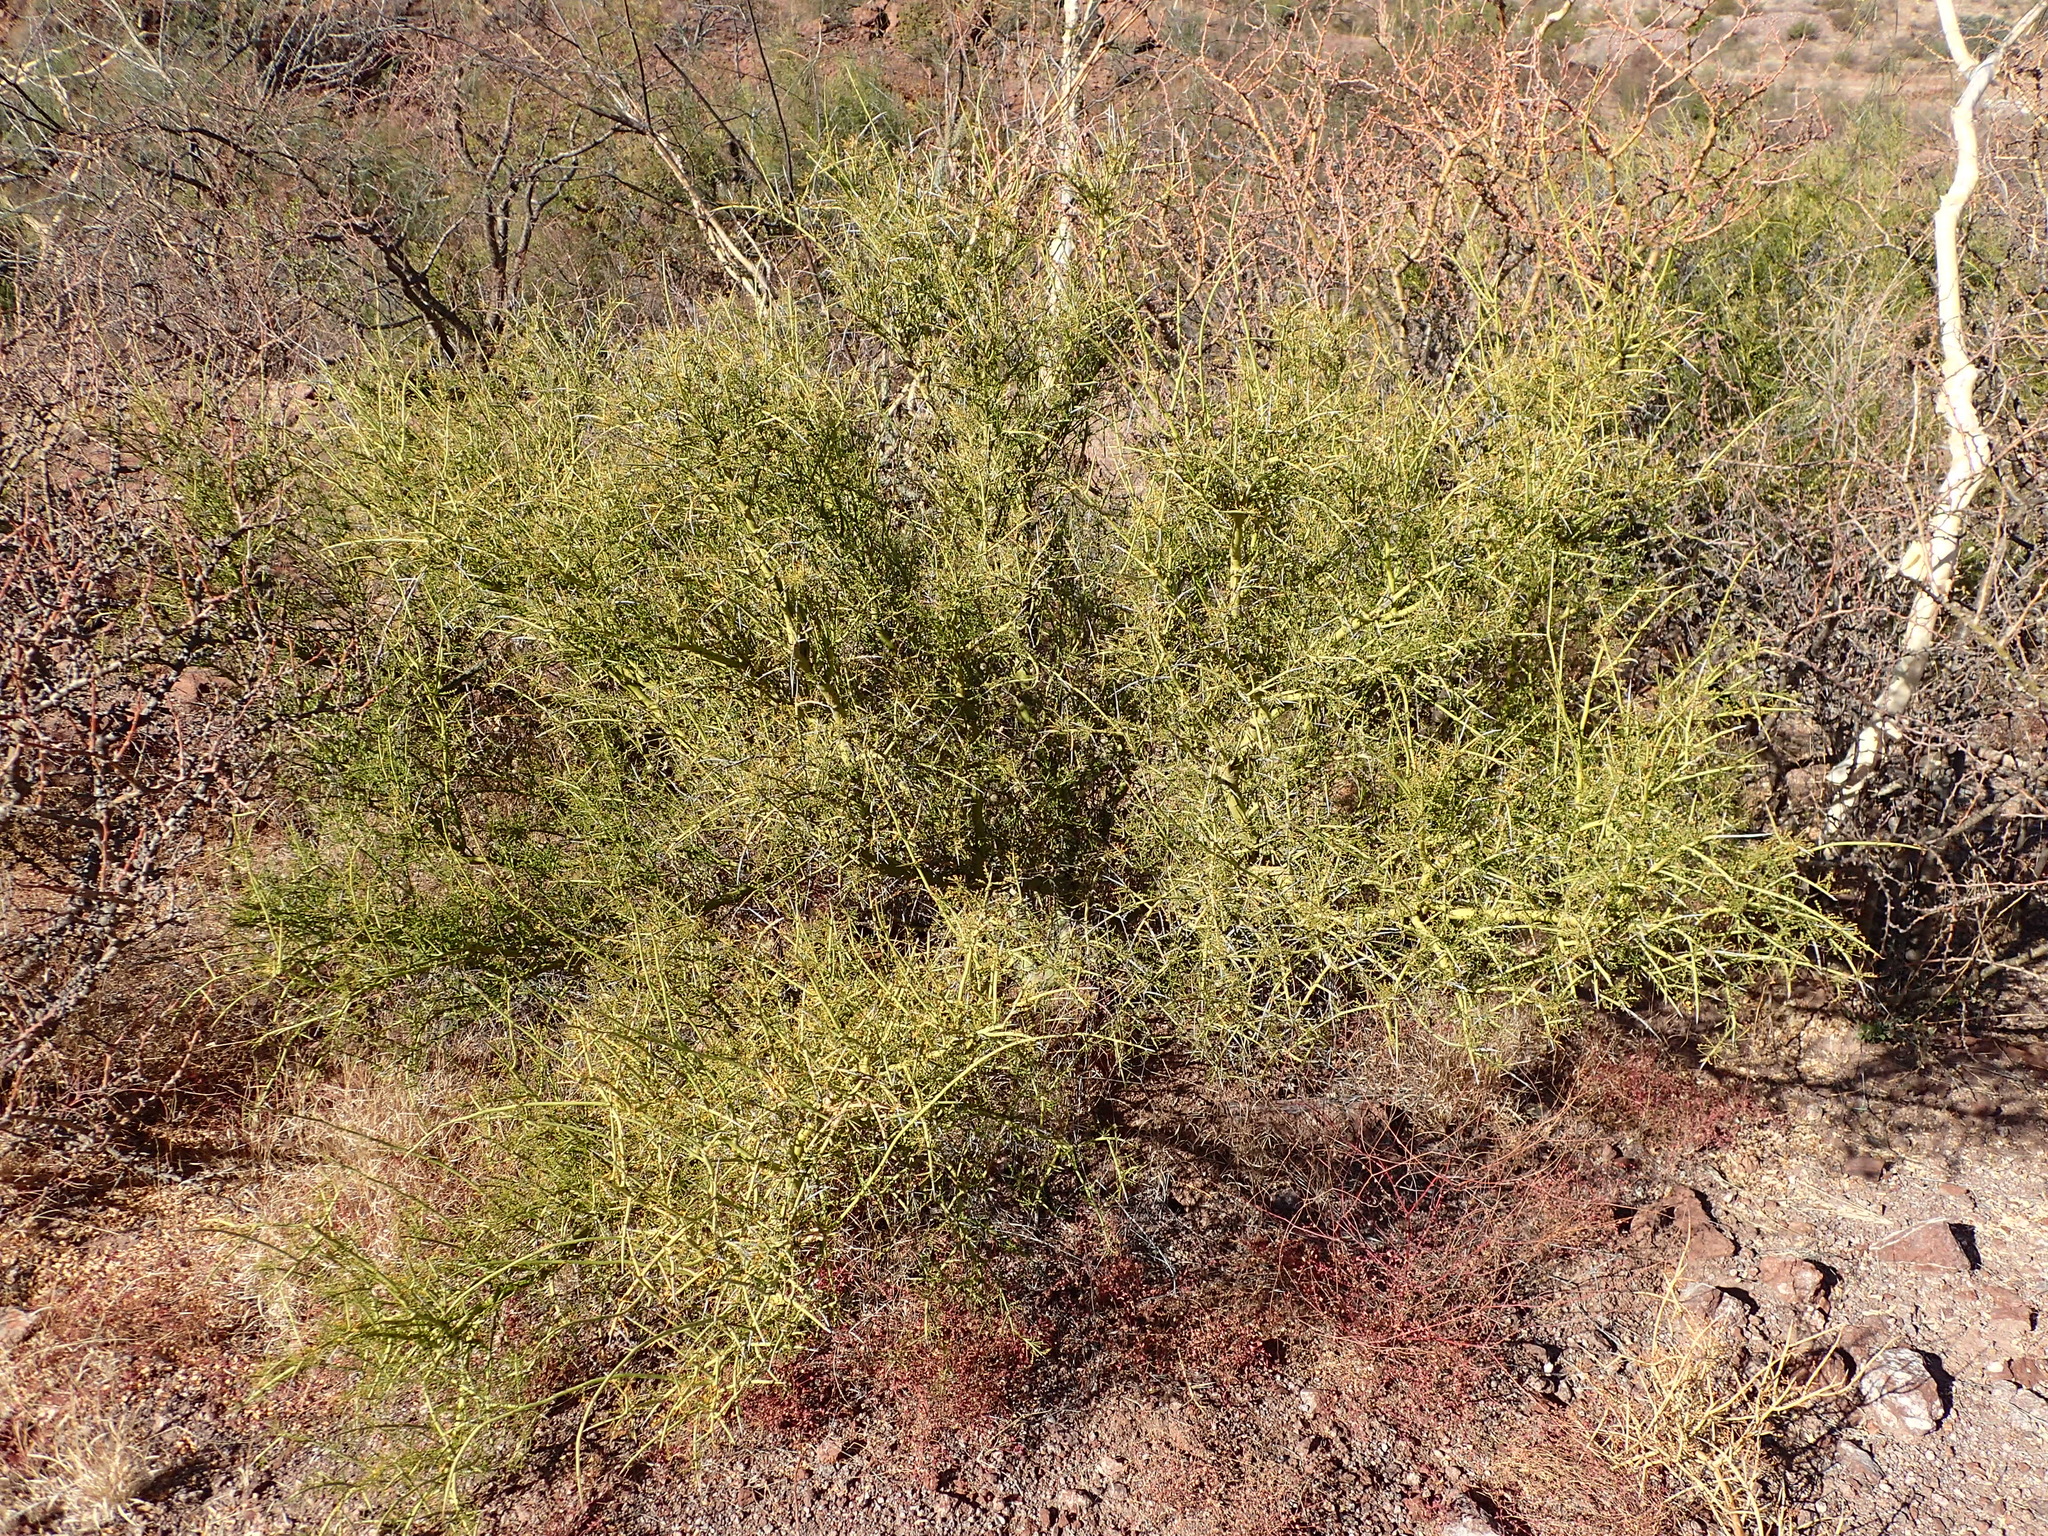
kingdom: Plantae
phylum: Tracheophyta
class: Magnoliopsida
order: Fabales
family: Fabaceae
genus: Parkinsonia
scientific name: Parkinsonia microphylla
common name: Yellow paloverde
